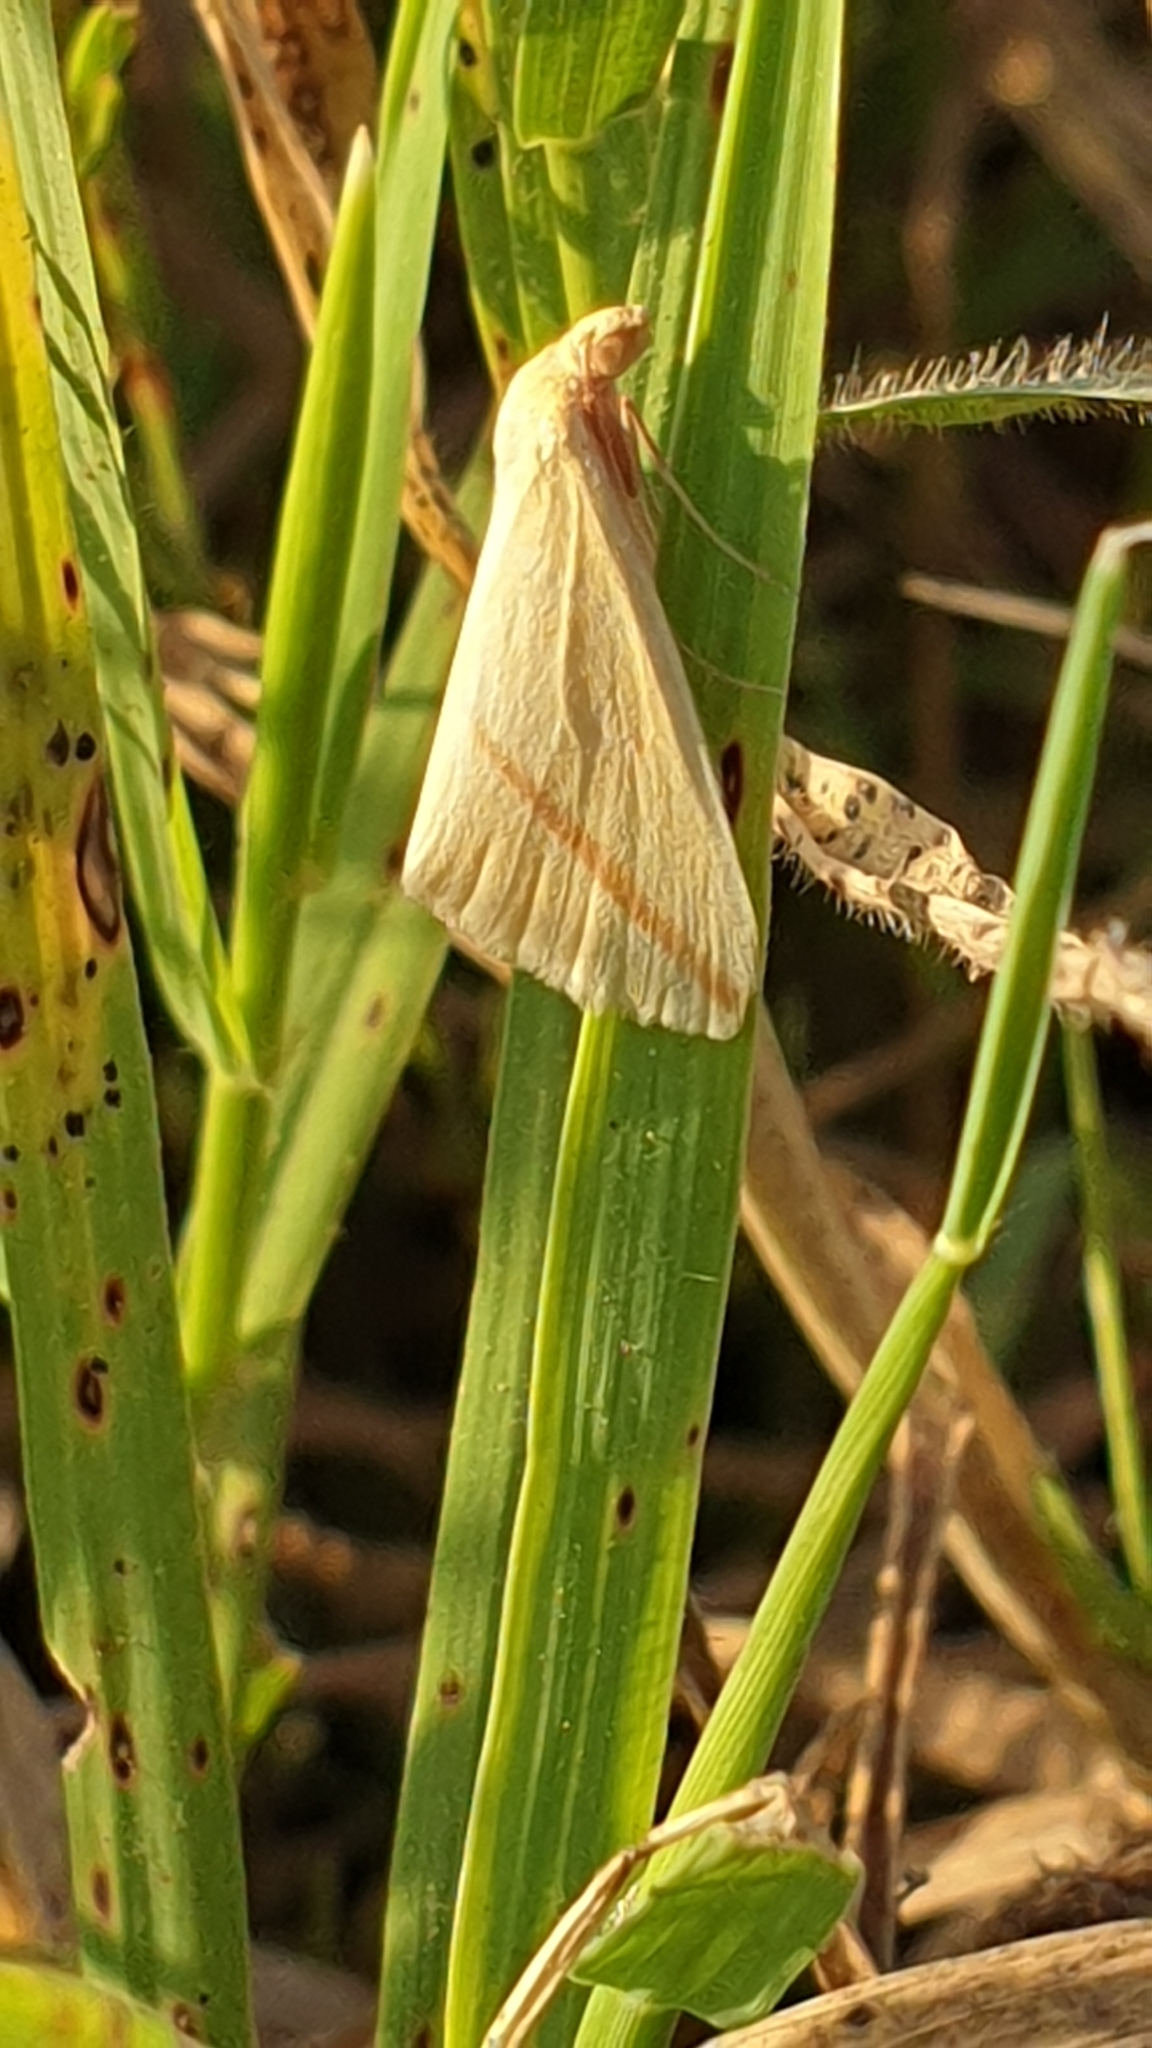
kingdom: Animalia
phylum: Arthropoda
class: Insecta
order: Lepidoptera
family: Geometridae
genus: Rhodometra
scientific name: Rhodometra sacraria
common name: Vestal
